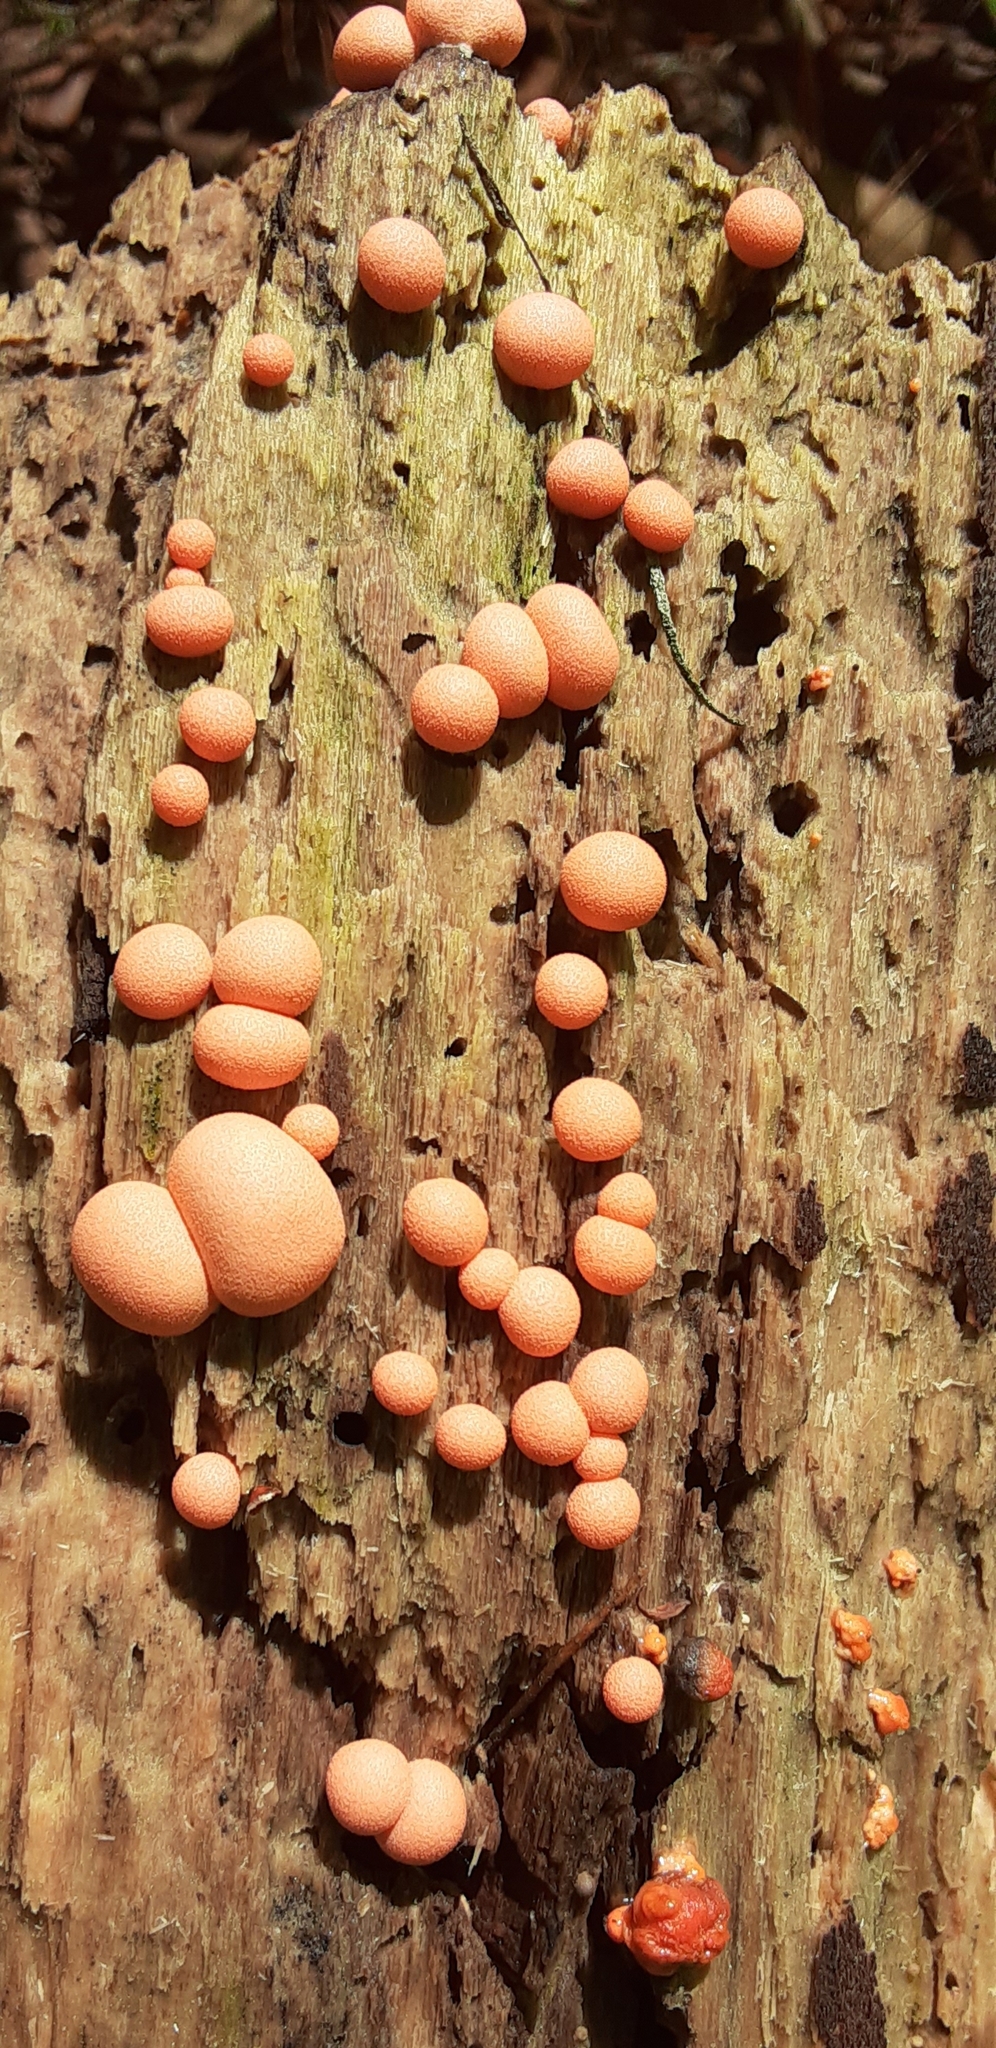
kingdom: Protozoa
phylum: Mycetozoa
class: Myxomycetes
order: Cribrariales
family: Tubiferaceae
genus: Lycogala
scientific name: Lycogala epidendrum
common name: Wolf's milk
